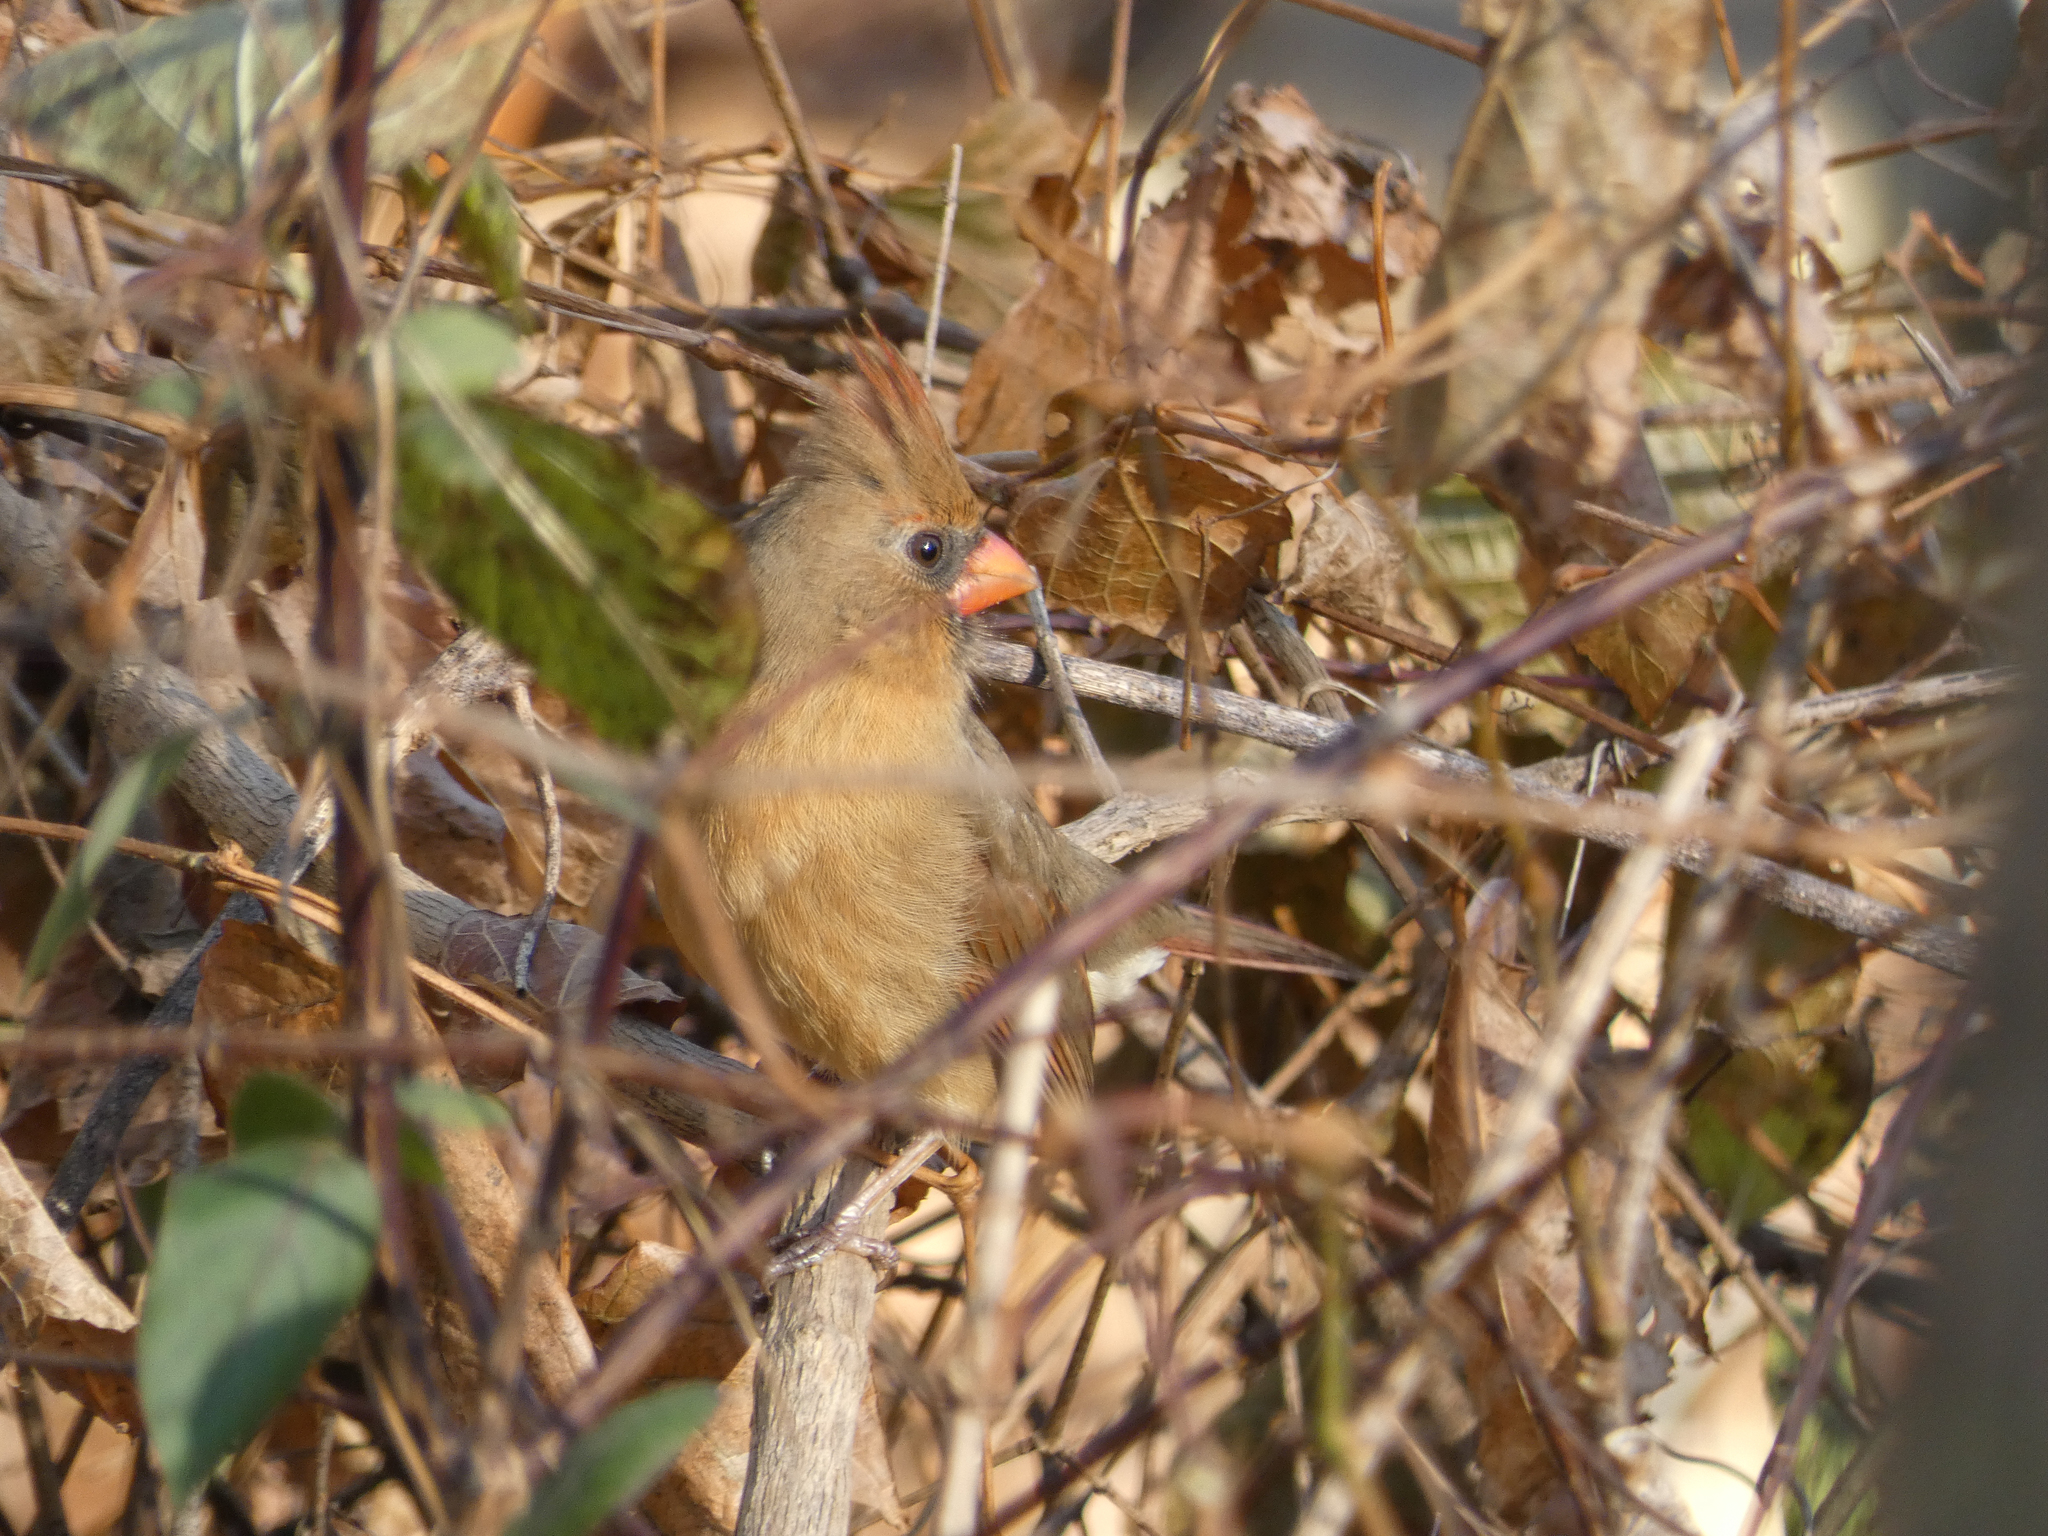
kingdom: Animalia
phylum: Chordata
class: Aves
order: Passeriformes
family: Cardinalidae
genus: Cardinalis
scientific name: Cardinalis cardinalis
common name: Northern cardinal
